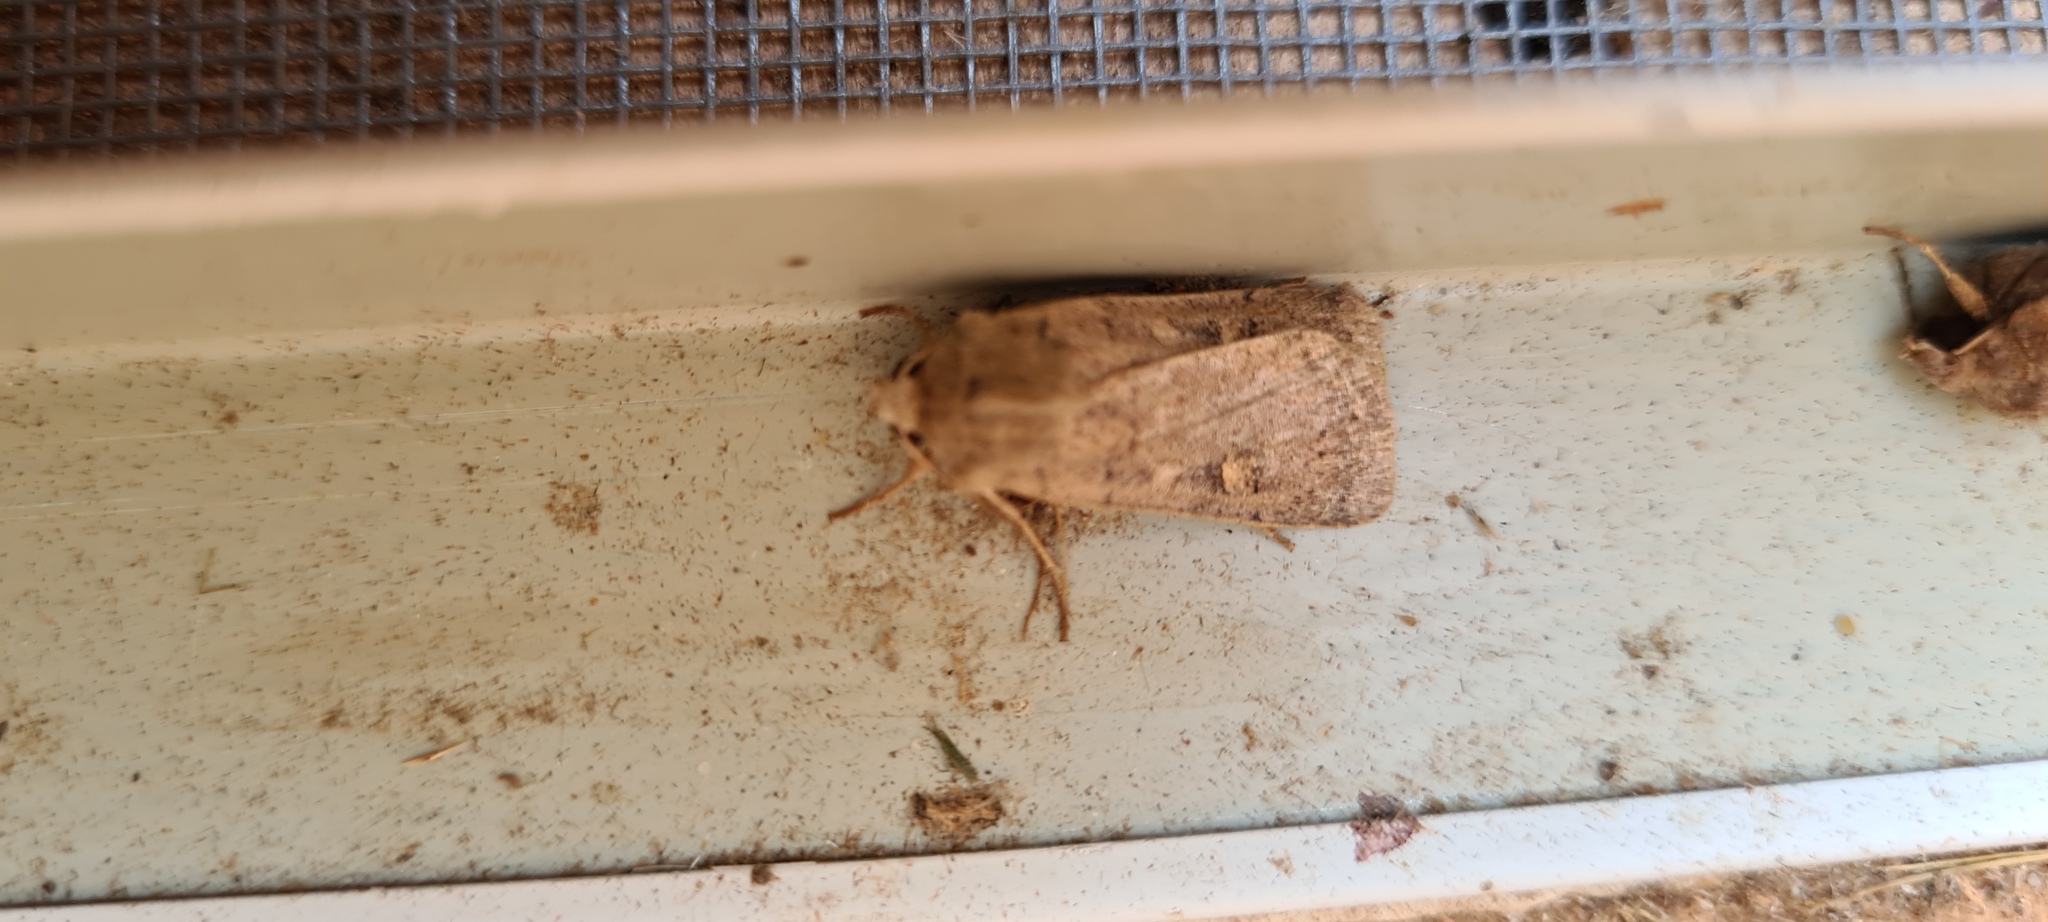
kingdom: Animalia
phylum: Arthropoda
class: Insecta
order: Lepidoptera
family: Noctuidae
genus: Xestia
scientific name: Xestia xanthographa
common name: Square-spot rustic
